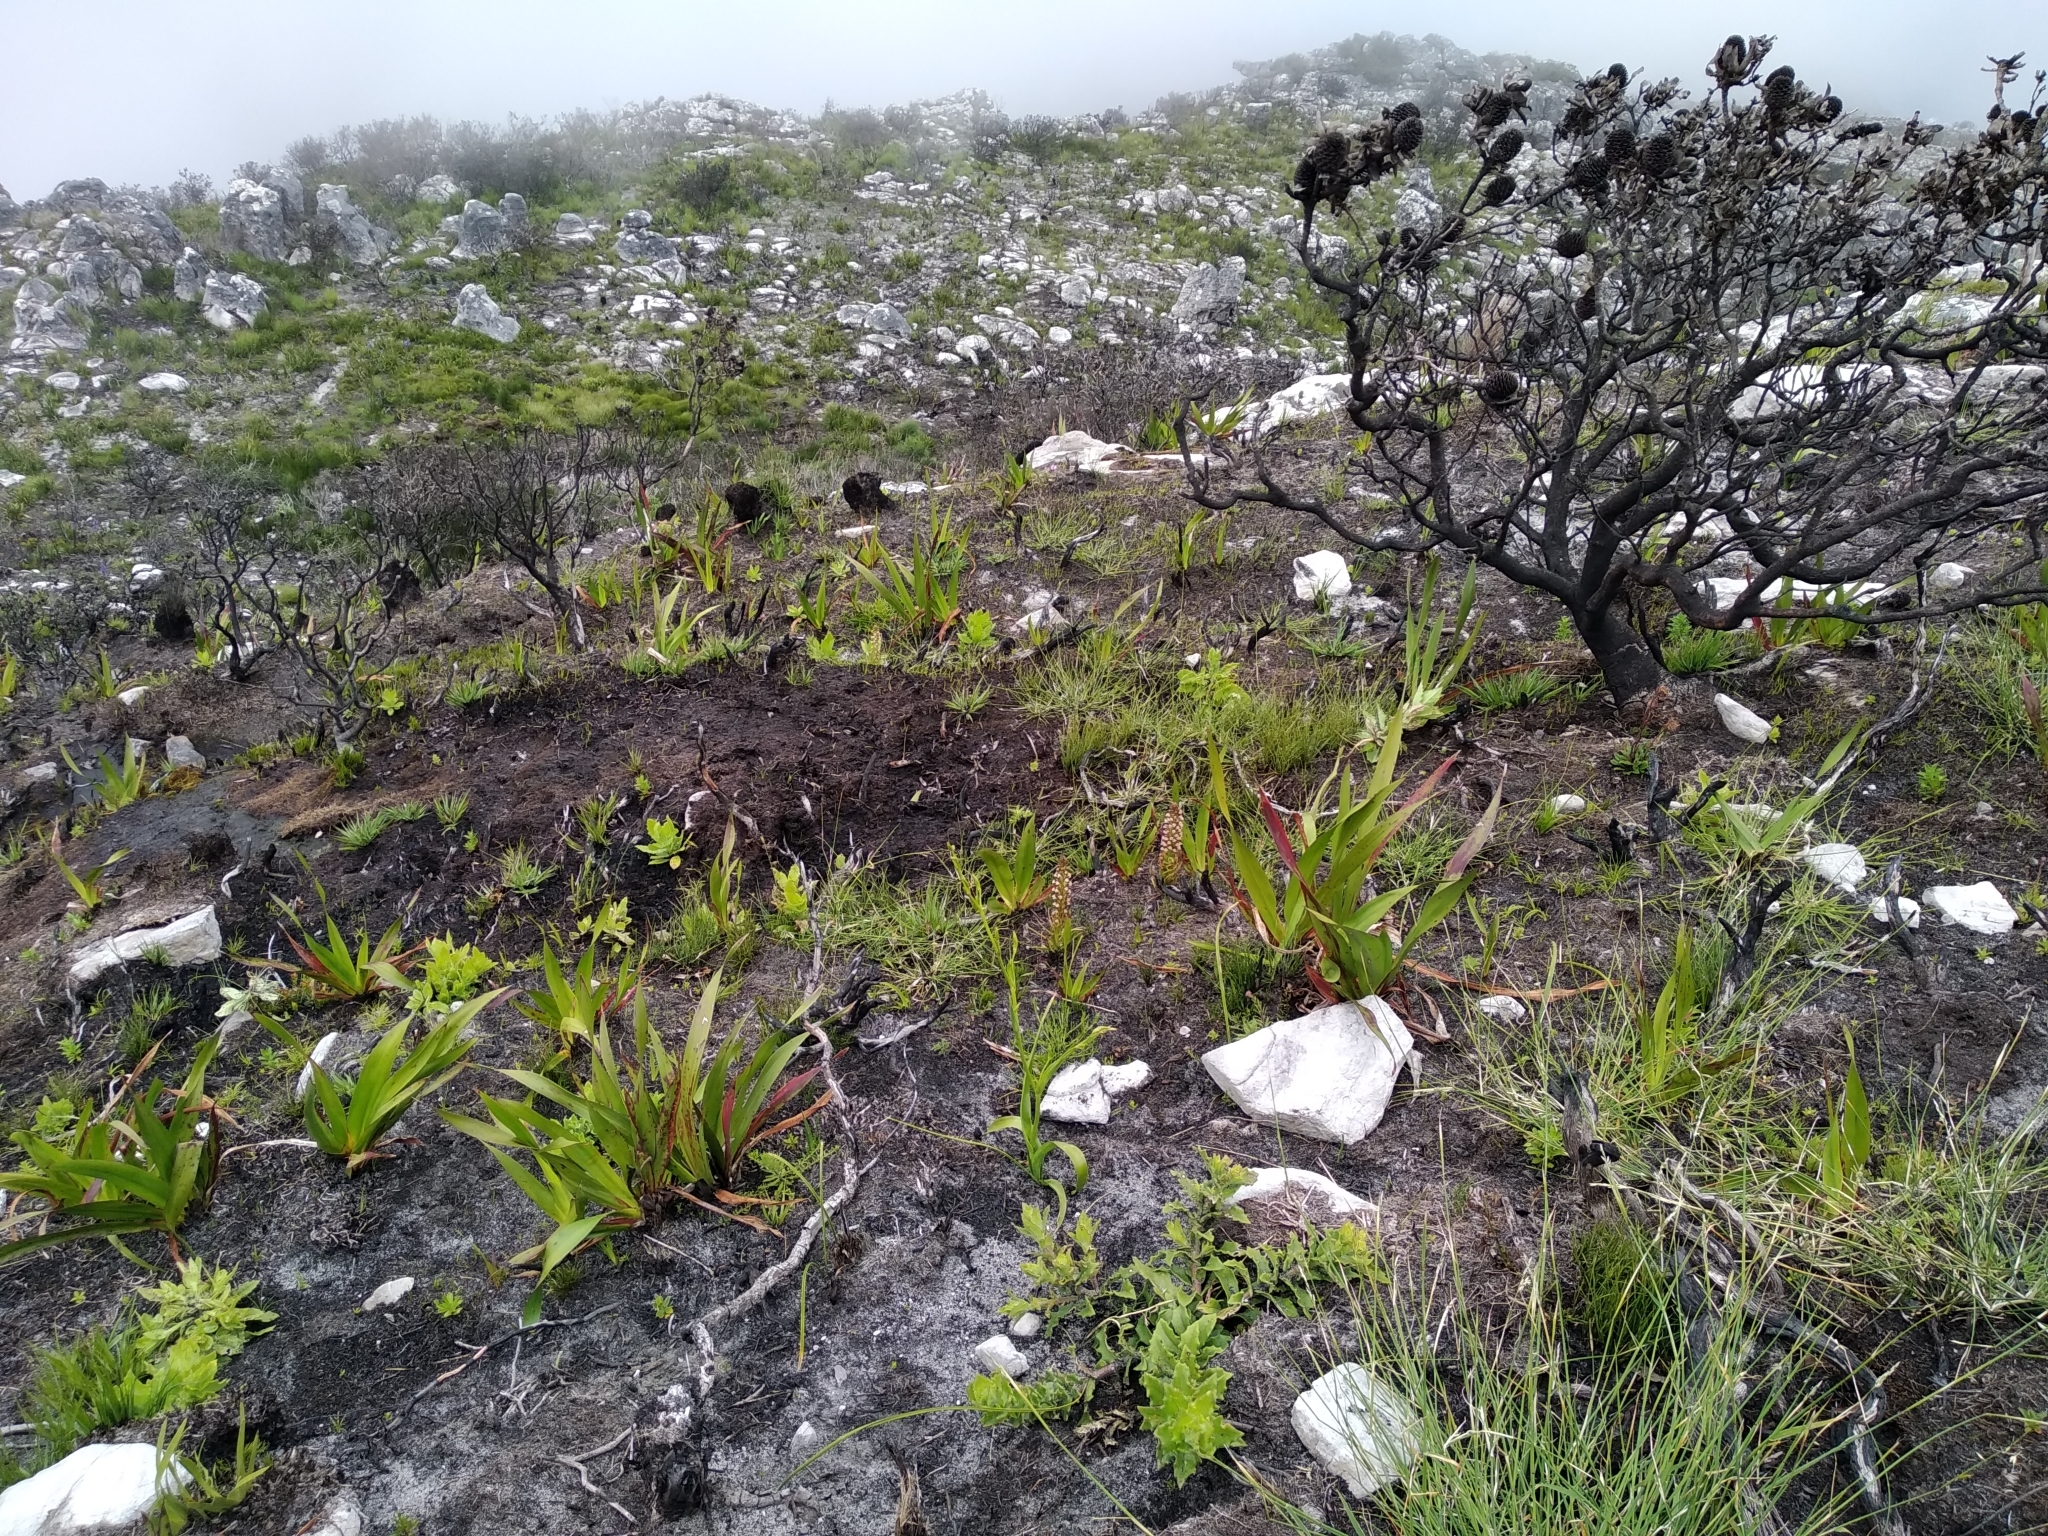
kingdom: Plantae
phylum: Tracheophyta
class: Liliopsida
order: Asparagales
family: Orchidaceae
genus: Disa
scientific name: Disa obtusa
